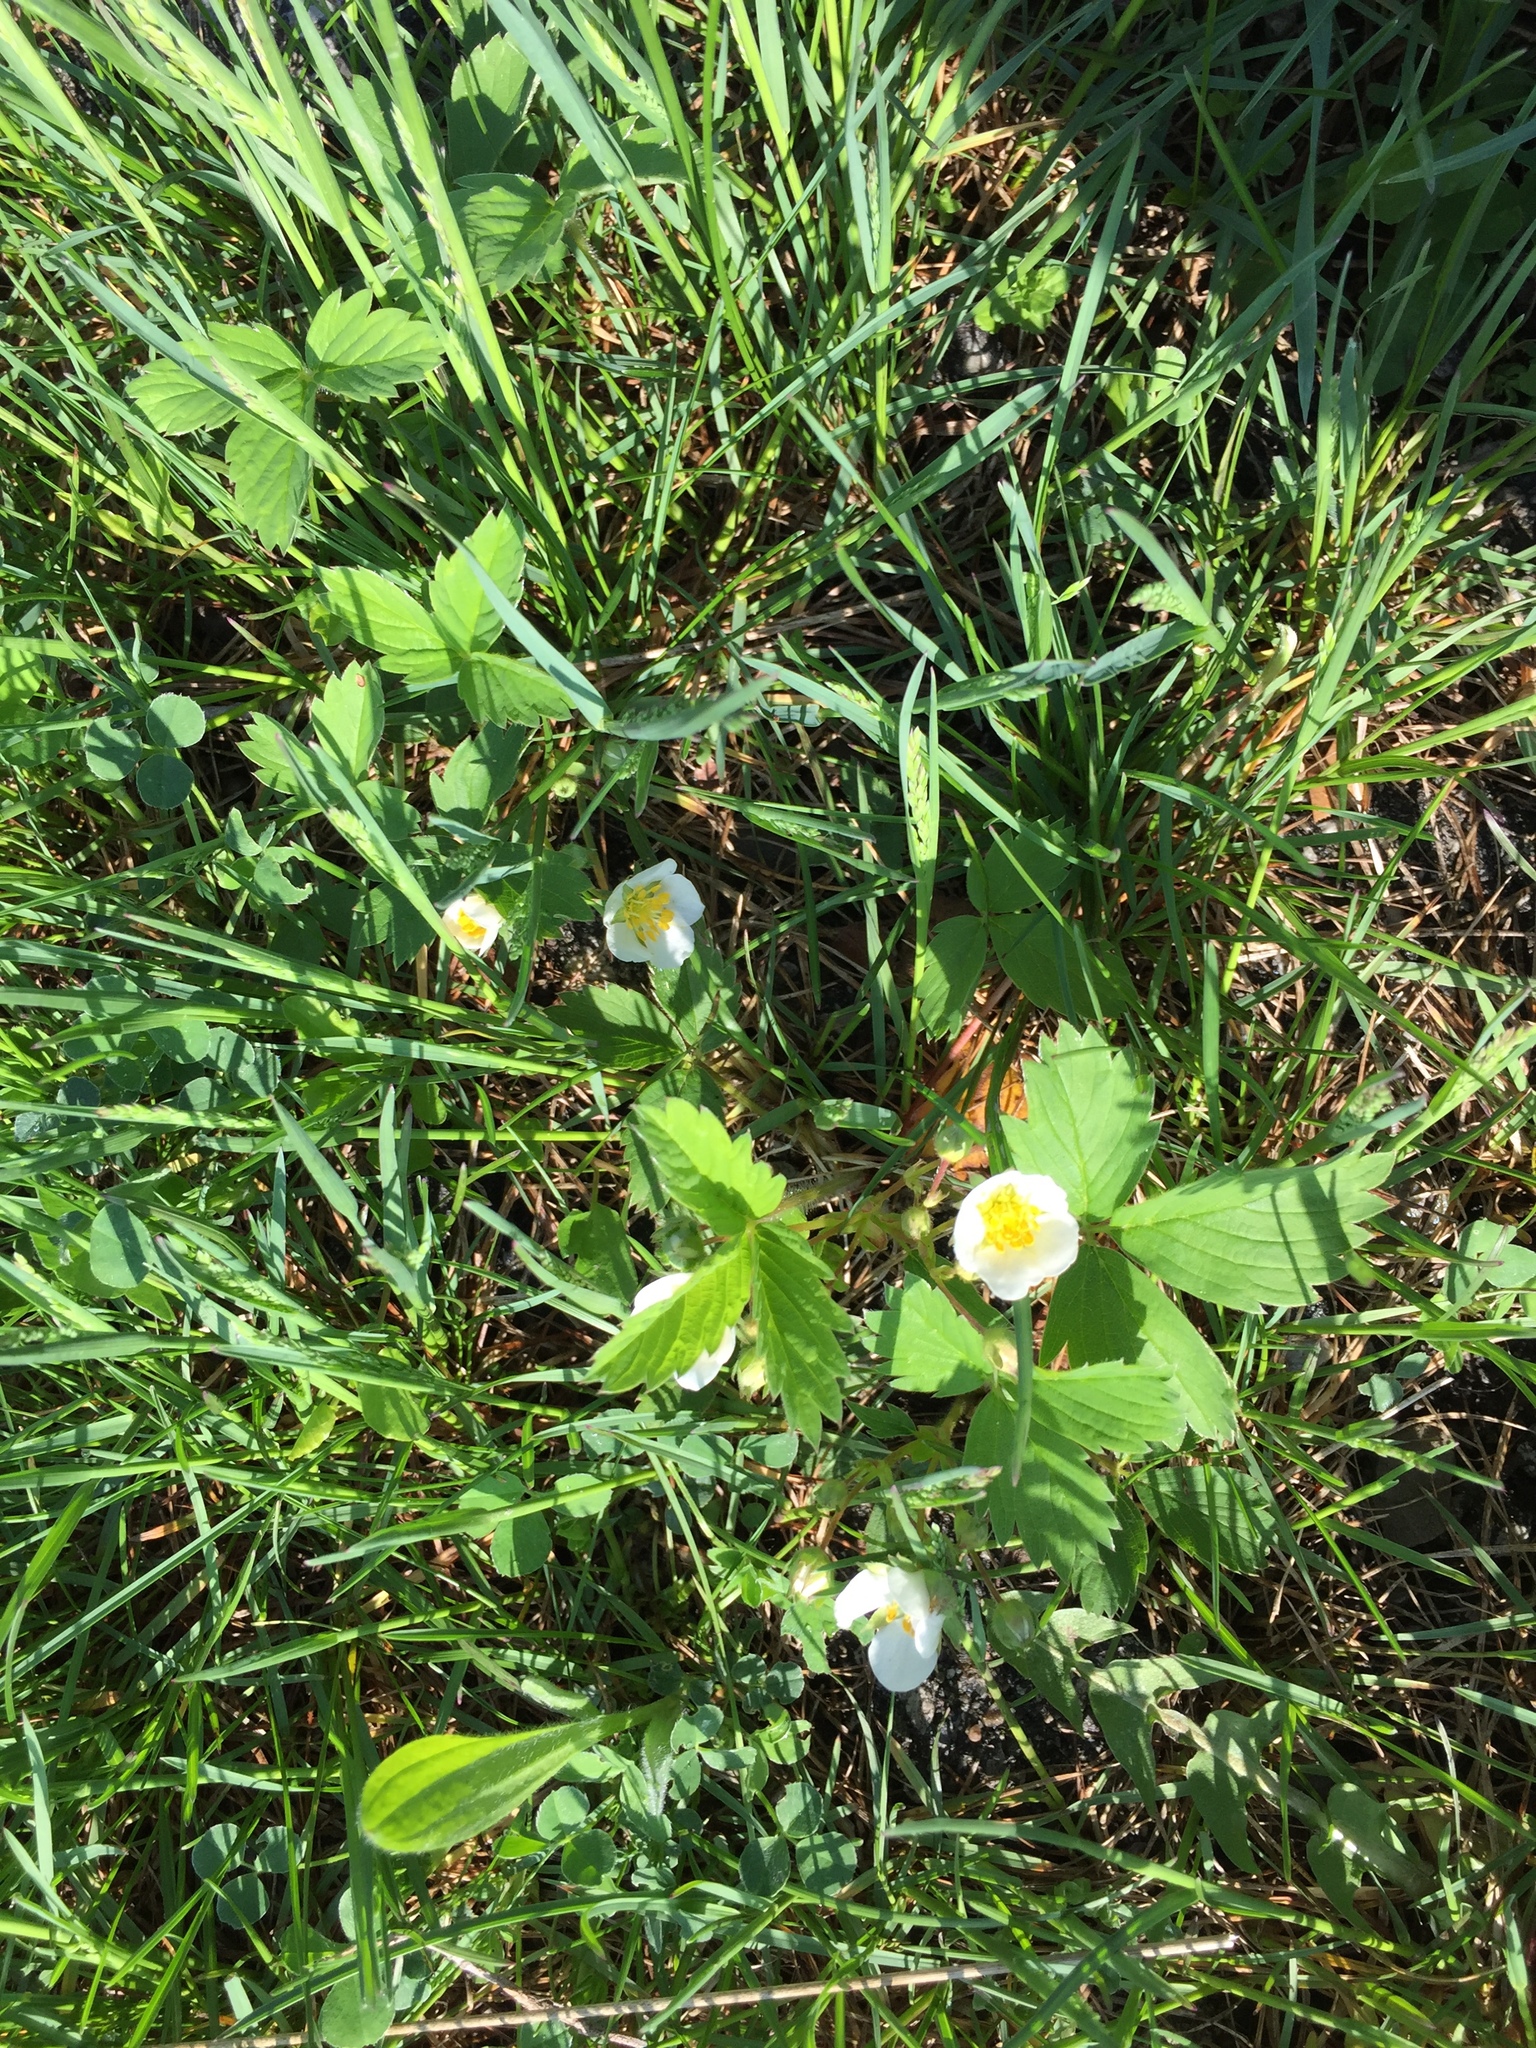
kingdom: Plantae
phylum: Tracheophyta
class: Magnoliopsida
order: Rosales
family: Rosaceae
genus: Fragaria
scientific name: Fragaria vesca
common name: Wild strawberry
